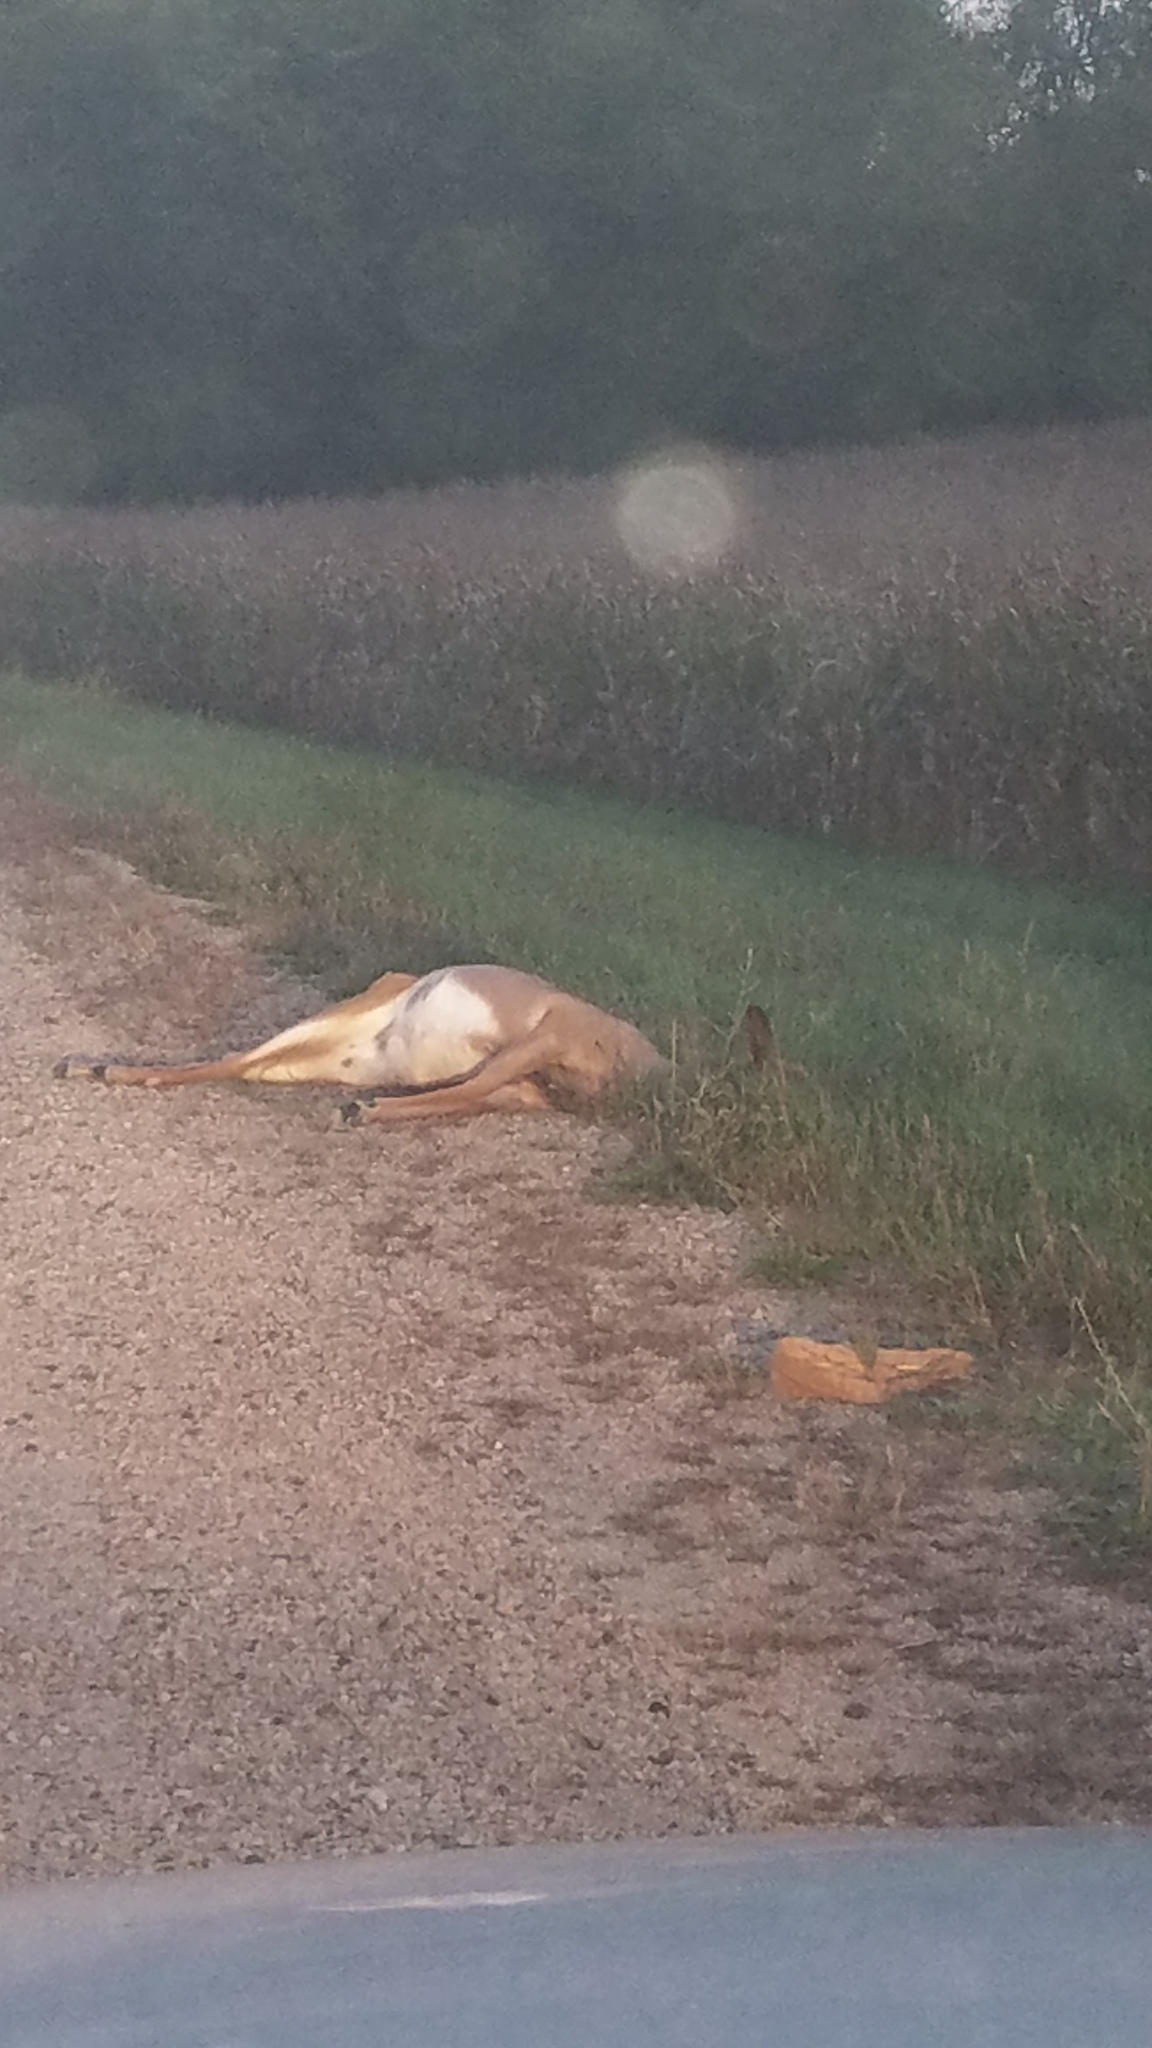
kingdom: Animalia
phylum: Chordata
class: Mammalia
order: Artiodactyla
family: Cervidae
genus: Odocoileus
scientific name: Odocoileus virginianus
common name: White-tailed deer
